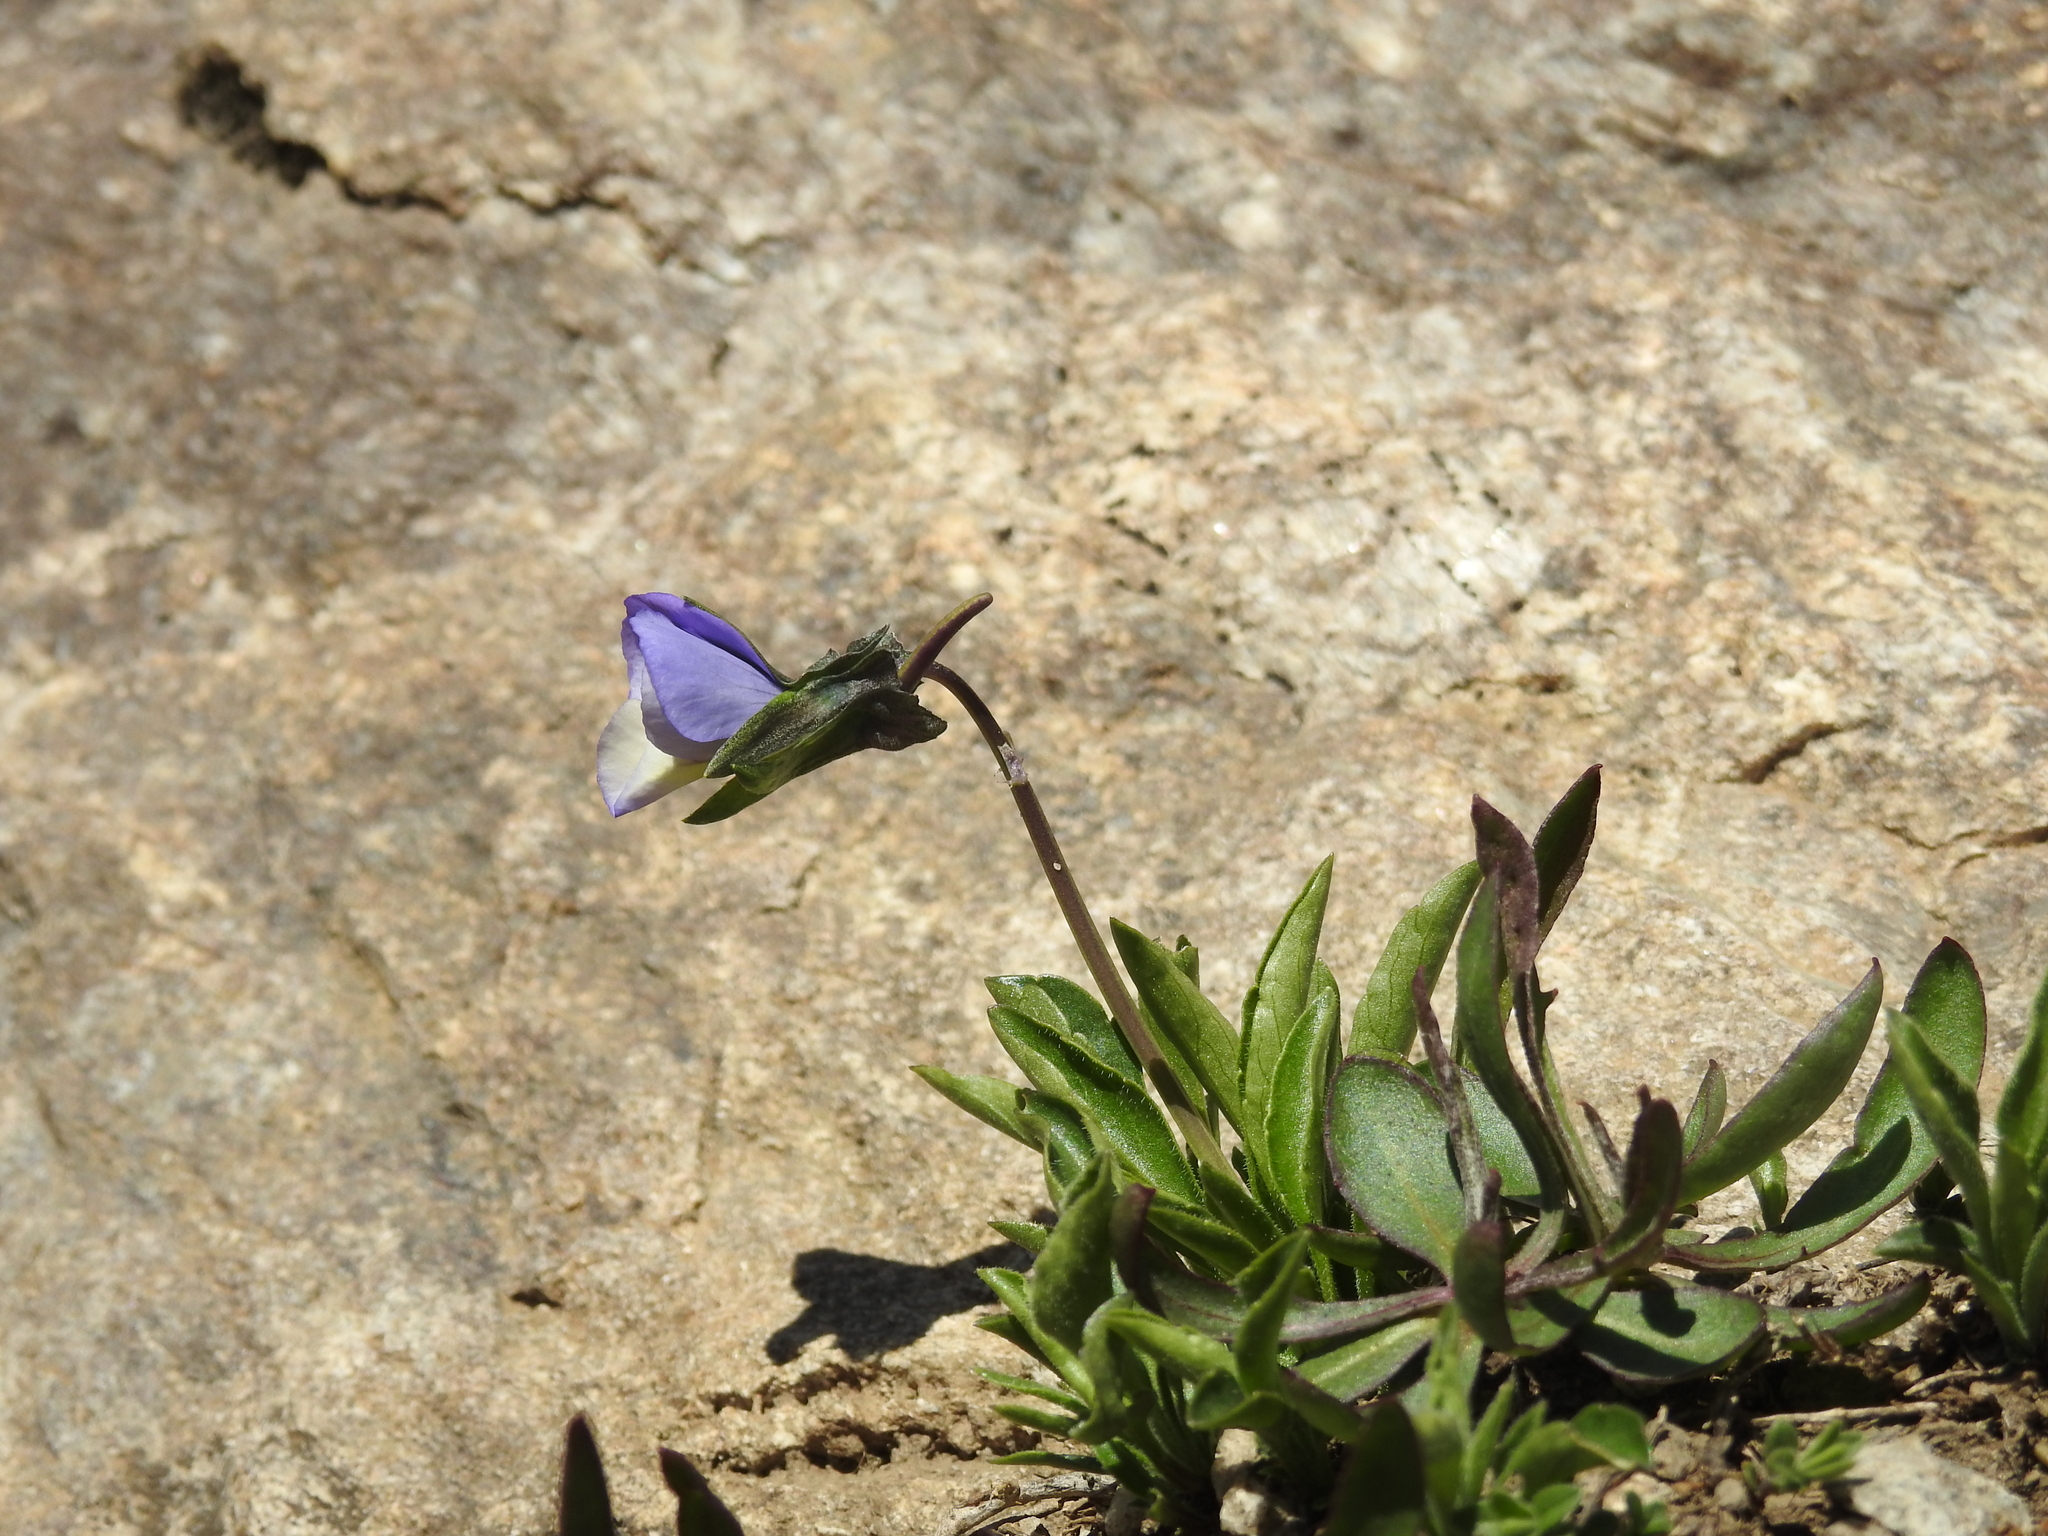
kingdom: Plantae
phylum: Tracheophyta
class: Magnoliopsida
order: Malpighiales
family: Violaceae
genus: Viola
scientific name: Viola calcarata
